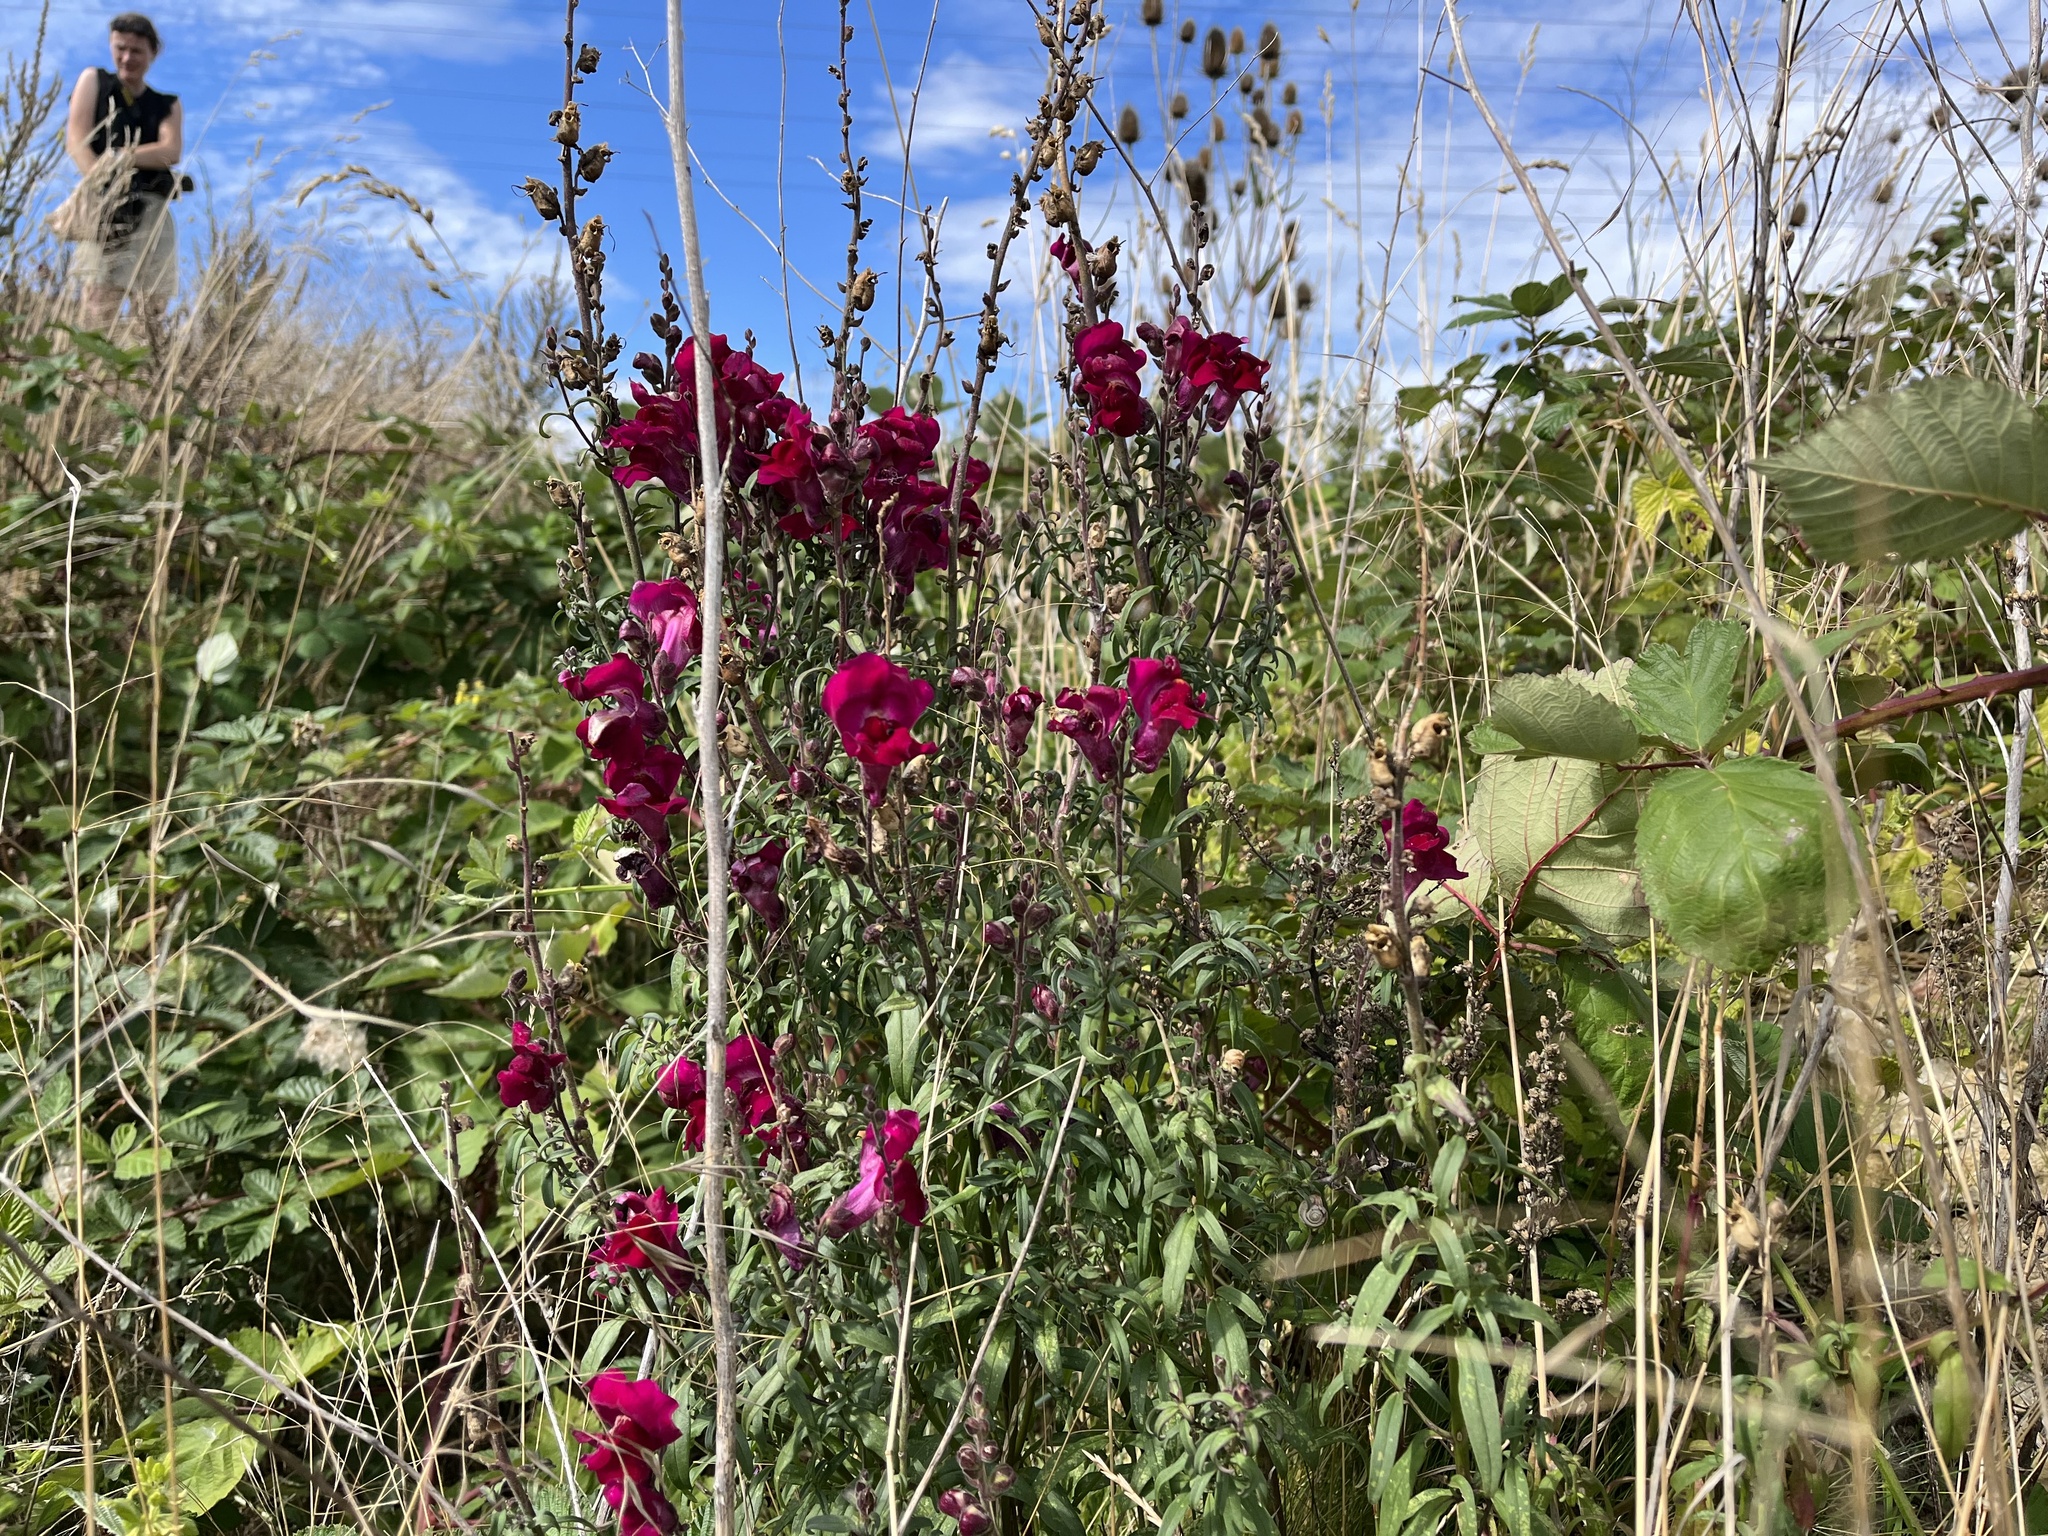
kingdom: Plantae
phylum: Tracheophyta
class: Magnoliopsida
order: Lamiales
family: Plantaginaceae
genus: Antirrhinum
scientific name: Antirrhinum majus
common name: Snapdragon
